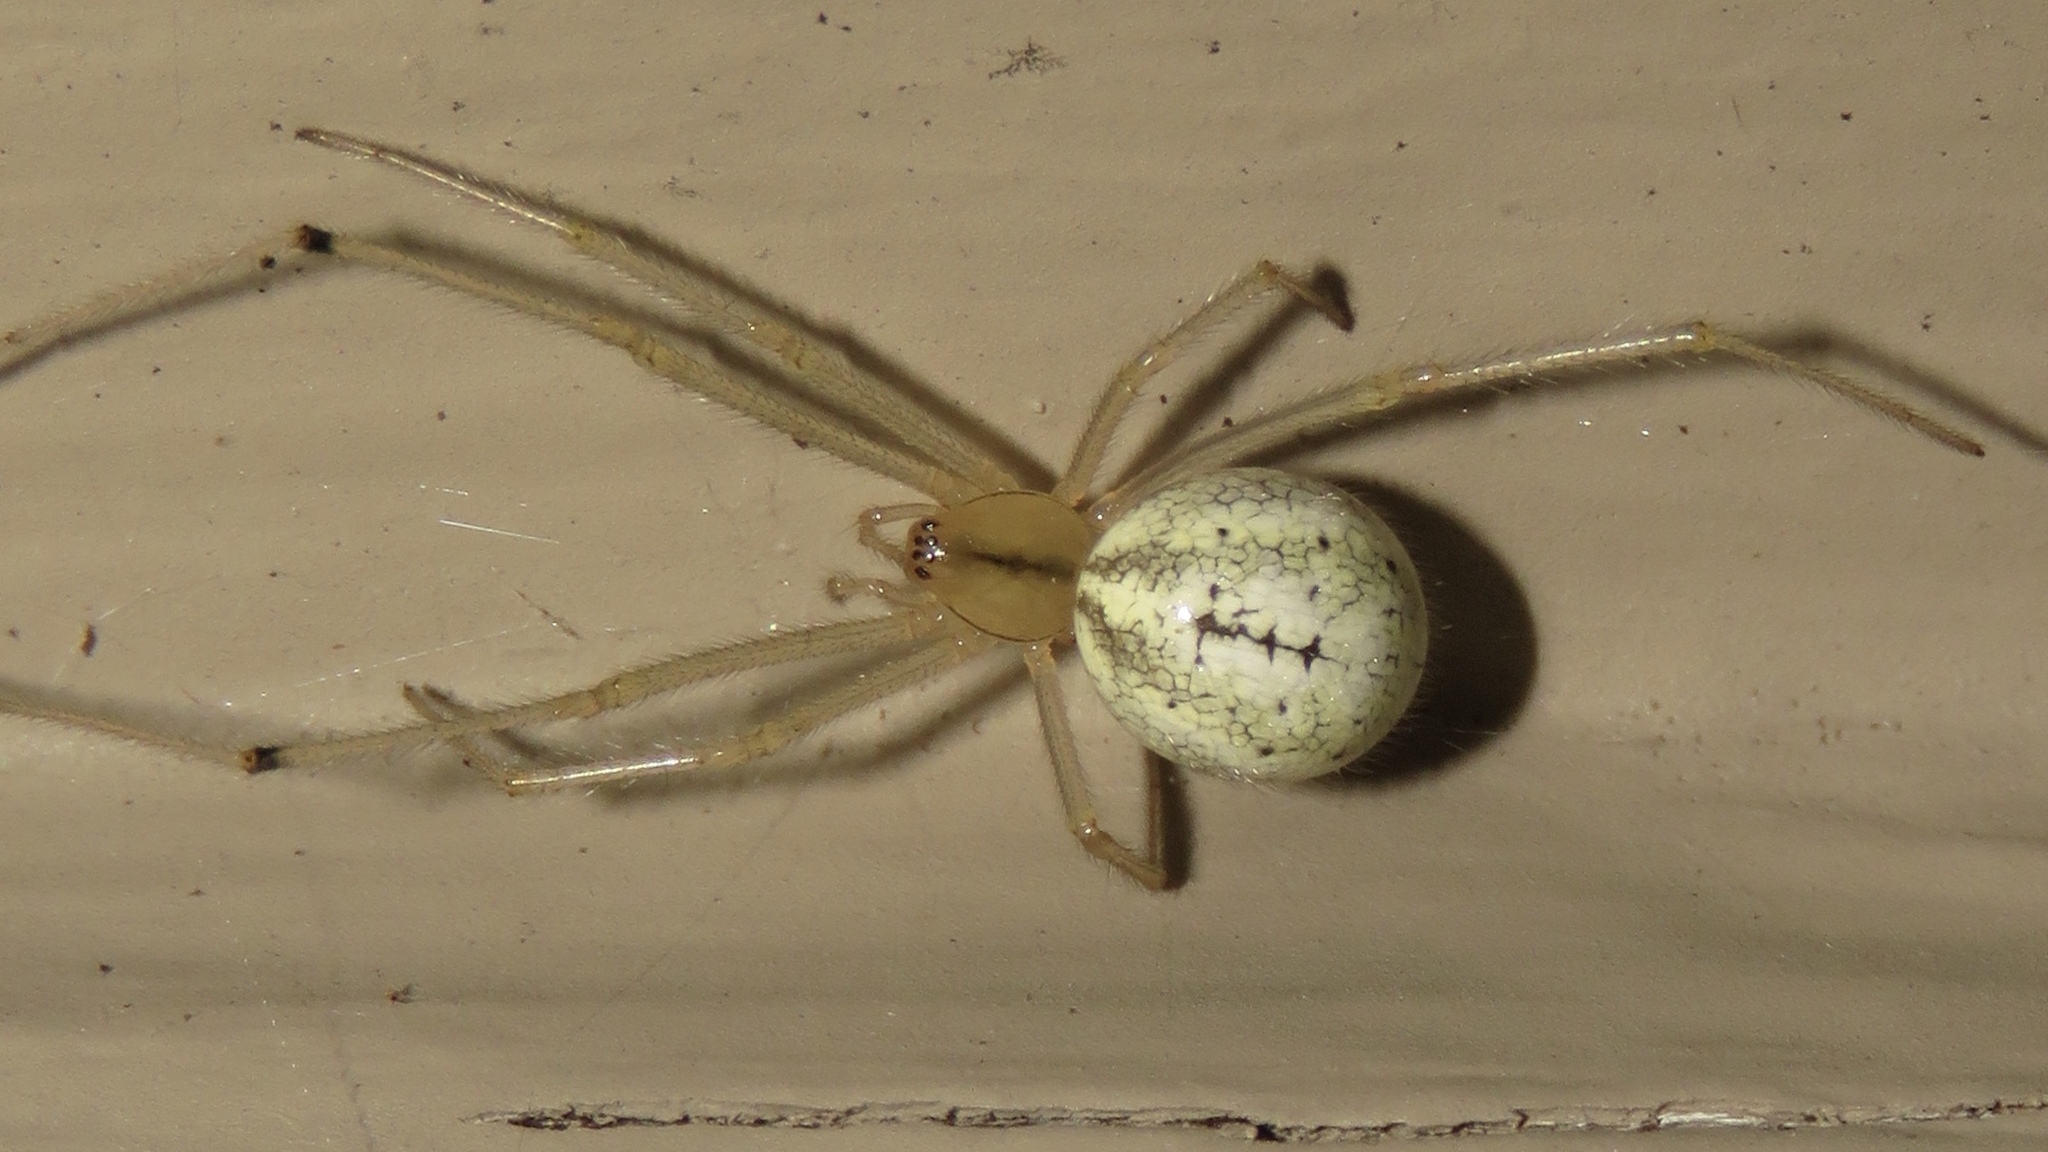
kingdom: Animalia
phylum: Arthropoda
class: Arachnida
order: Araneae
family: Theridiidae
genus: Enoplognatha
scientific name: Enoplognatha ovata
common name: Common candy-striped spider
